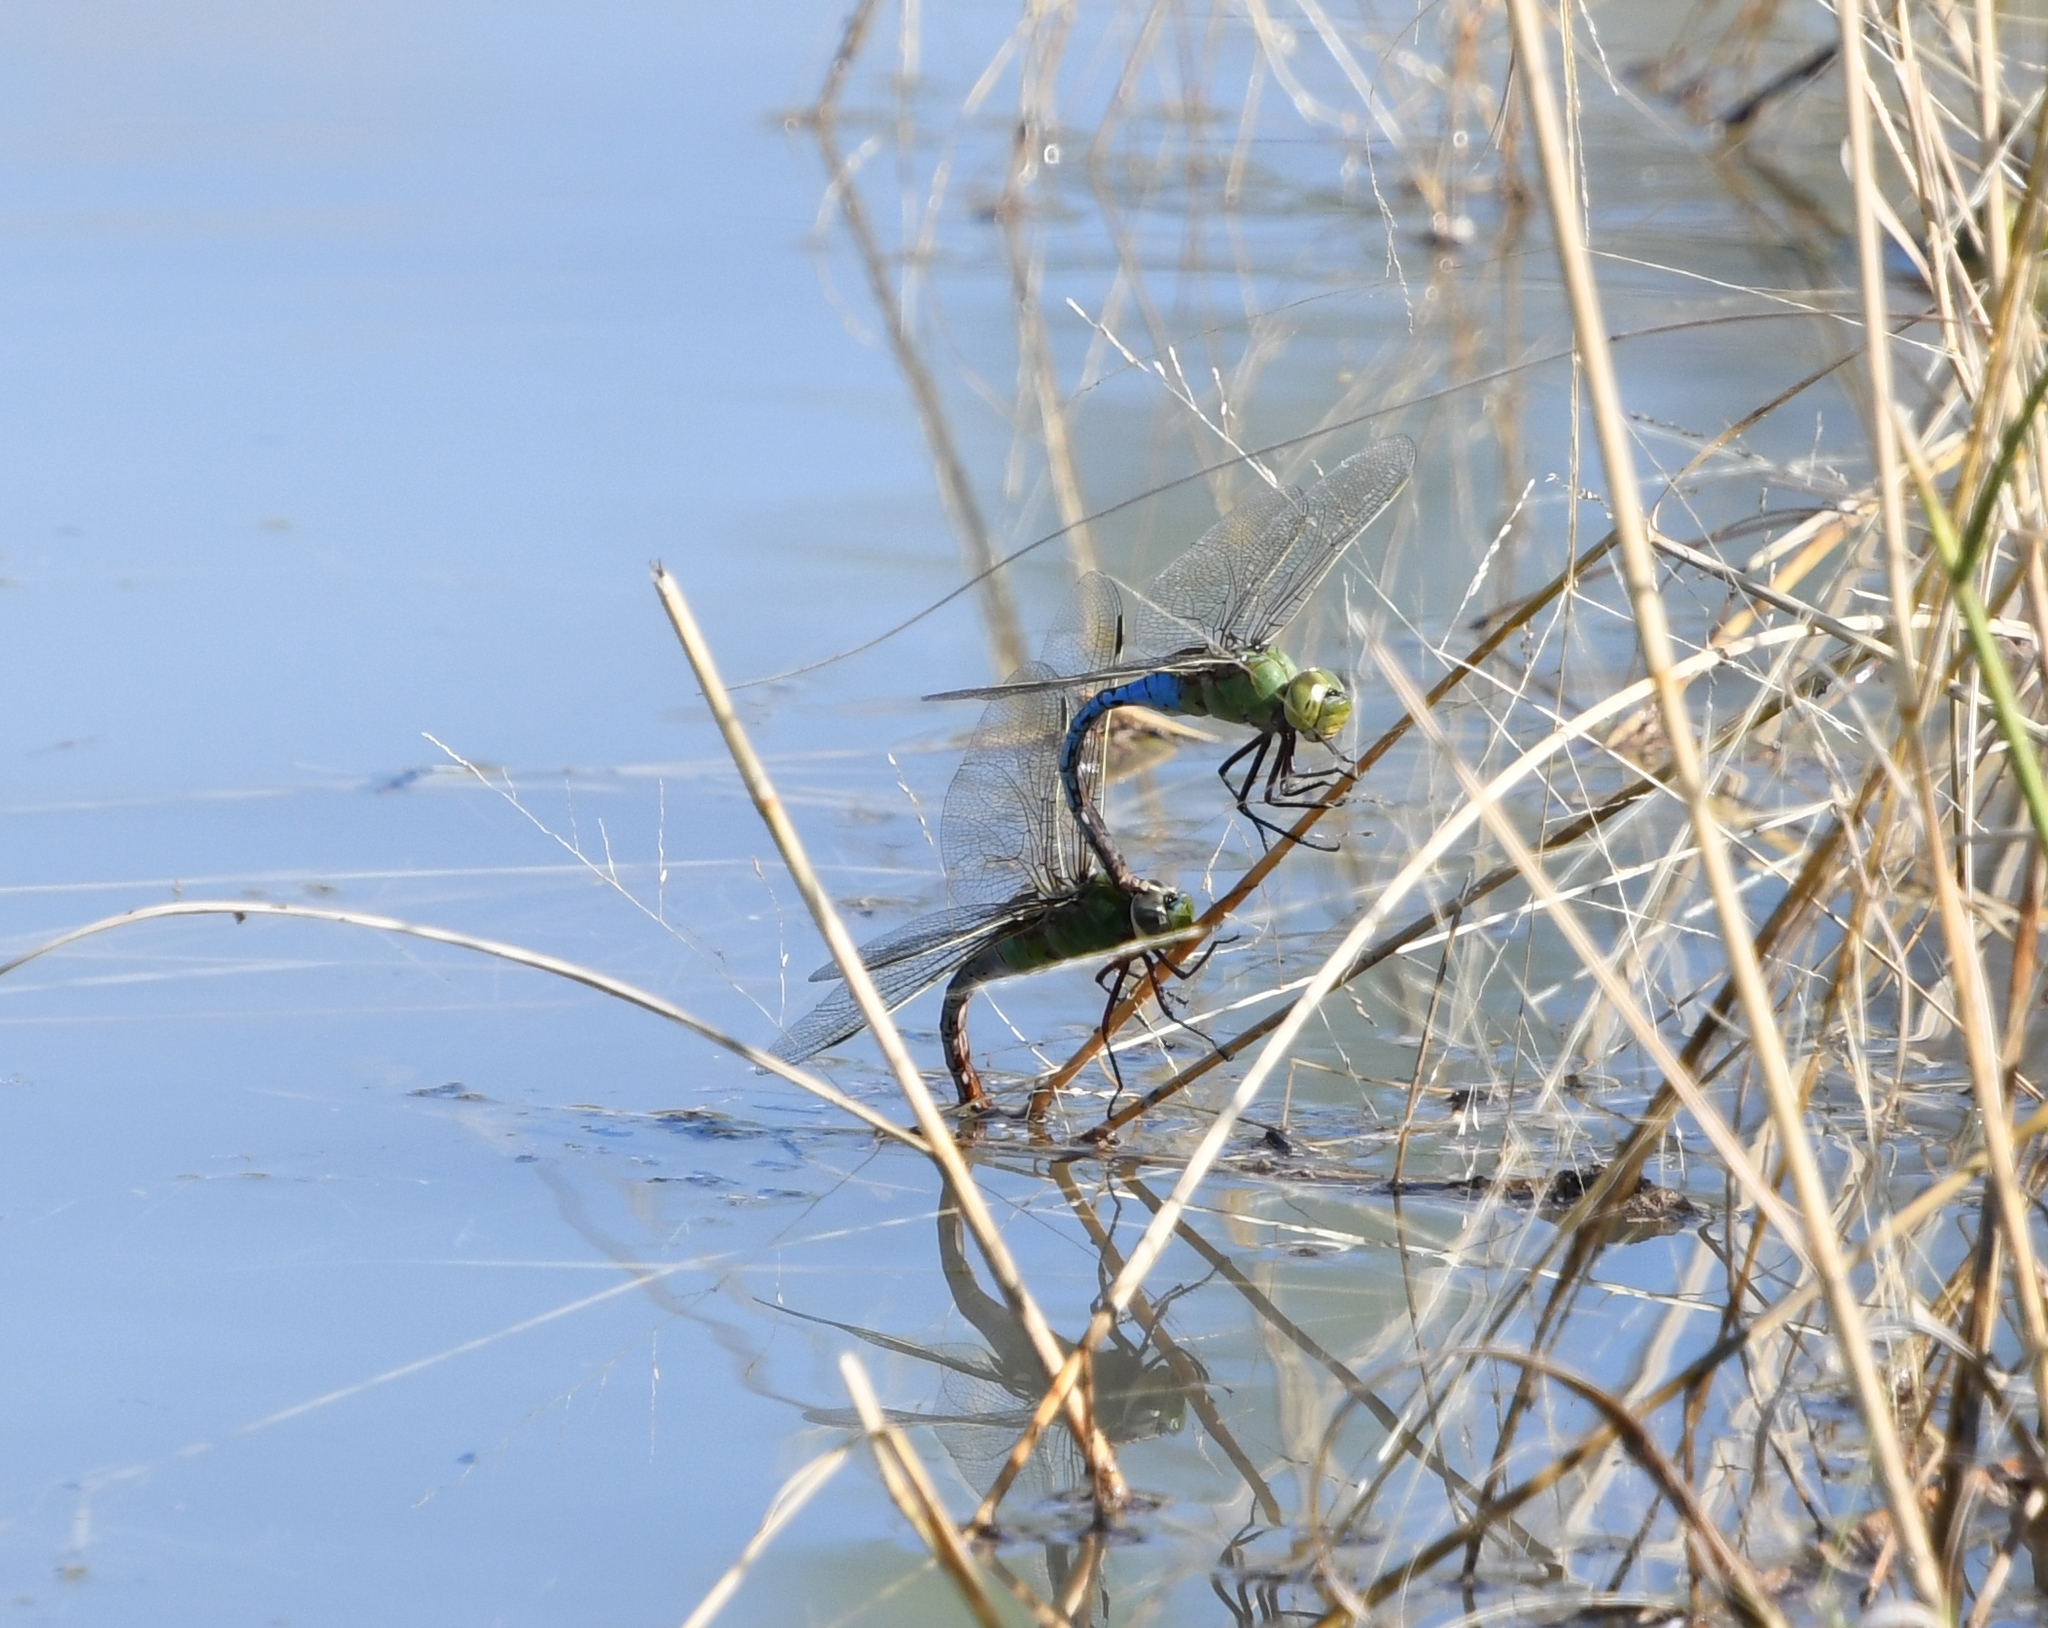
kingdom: Animalia
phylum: Arthropoda
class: Insecta
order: Odonata
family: Aeshnidae
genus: Anax
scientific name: Anax junius
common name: Common green darner
